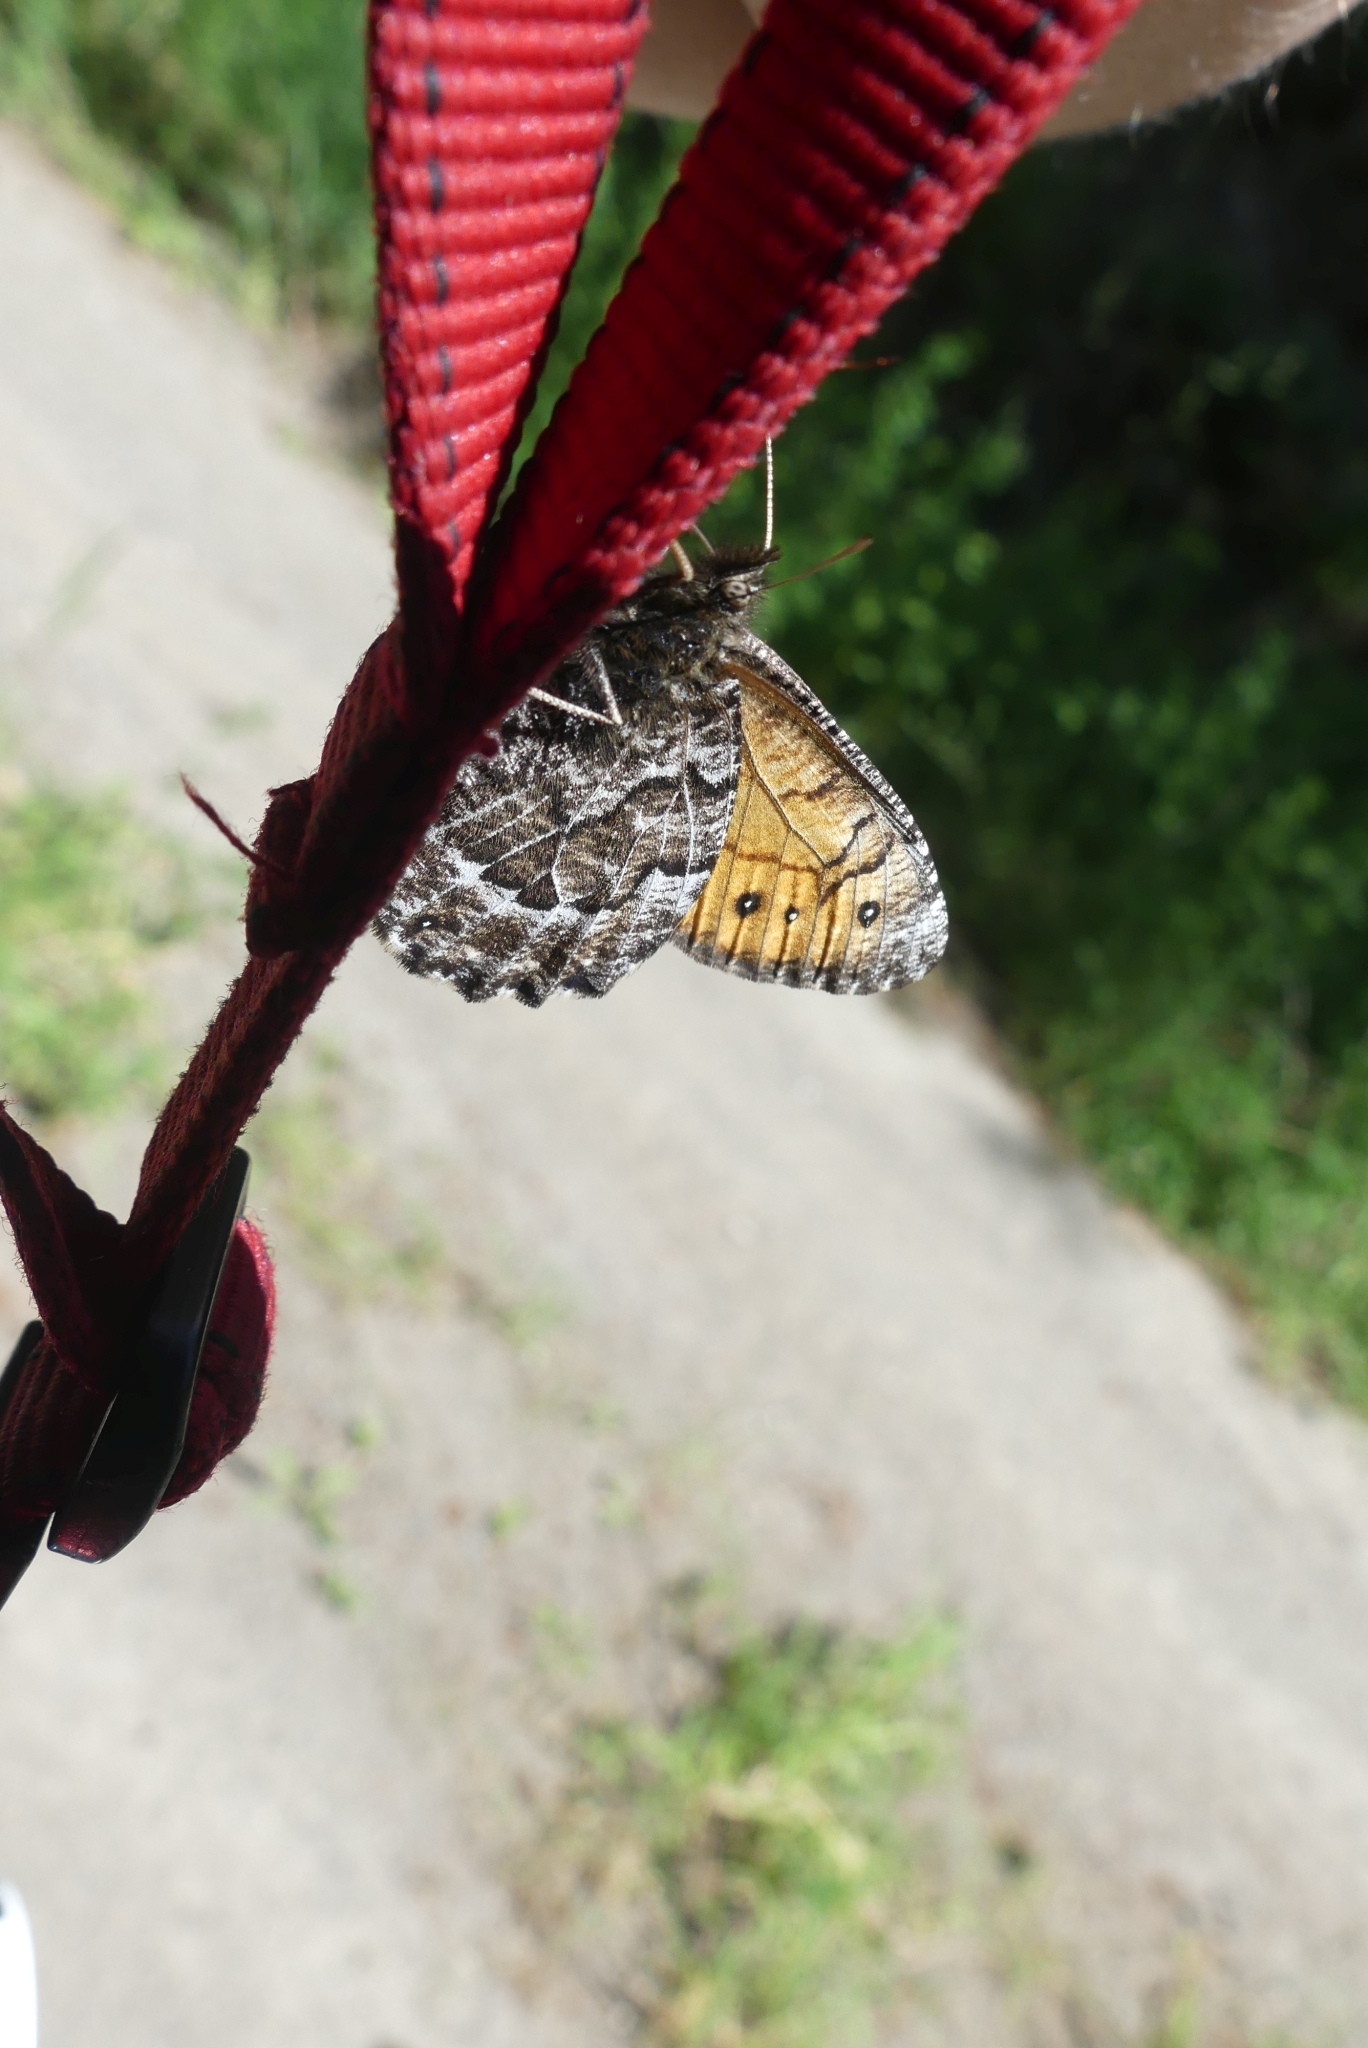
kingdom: Animalia
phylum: Arthropoda
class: Insecta
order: Lepidoptera
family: Nymphalidae
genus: Oeneis
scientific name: Oeneis chryxus
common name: Chryxus arctic
